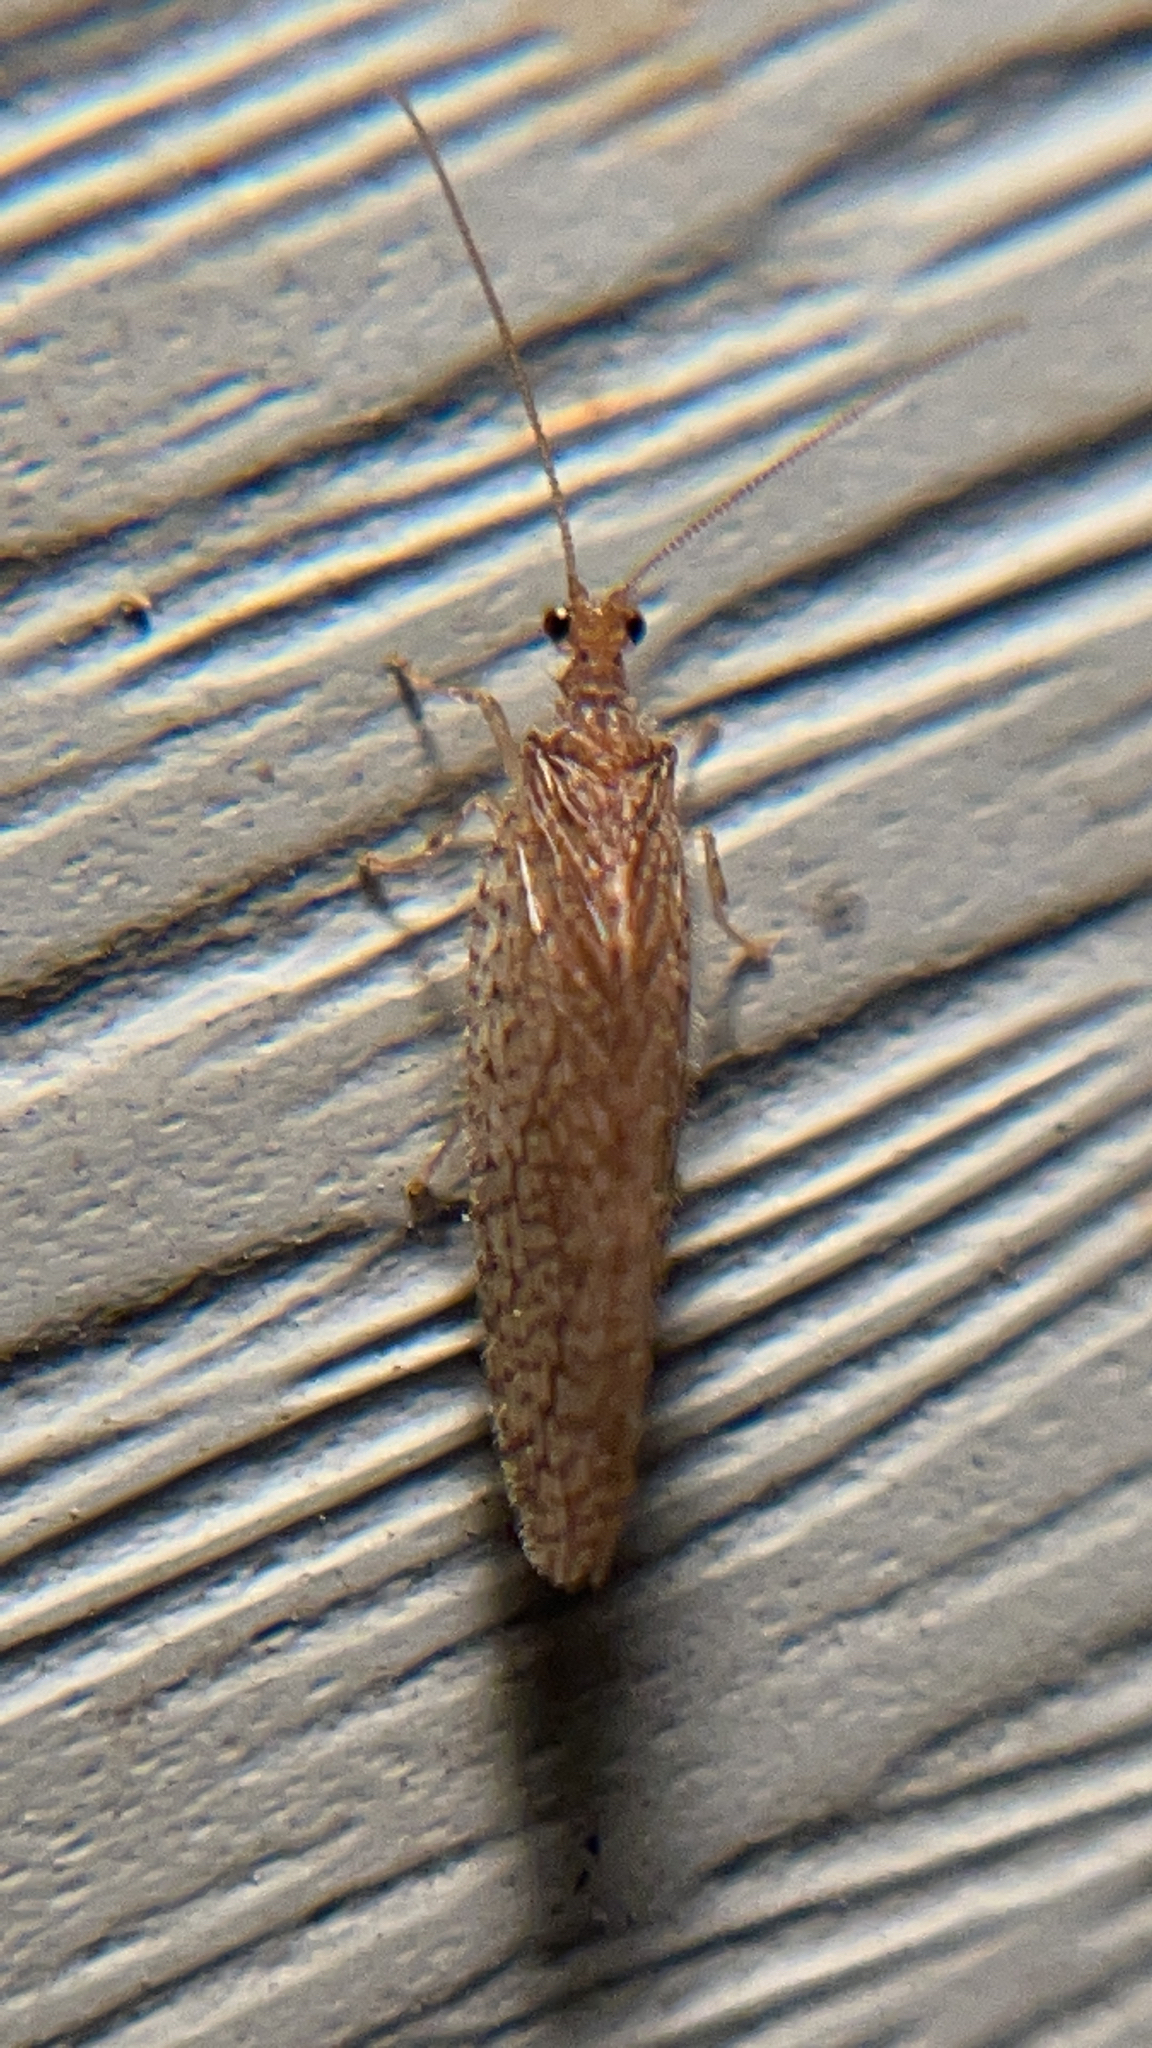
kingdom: Animalia
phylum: Arthropoda
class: Insecta
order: Neuroptera
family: Hemerobiidae
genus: Micromus
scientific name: Micromus posticus
